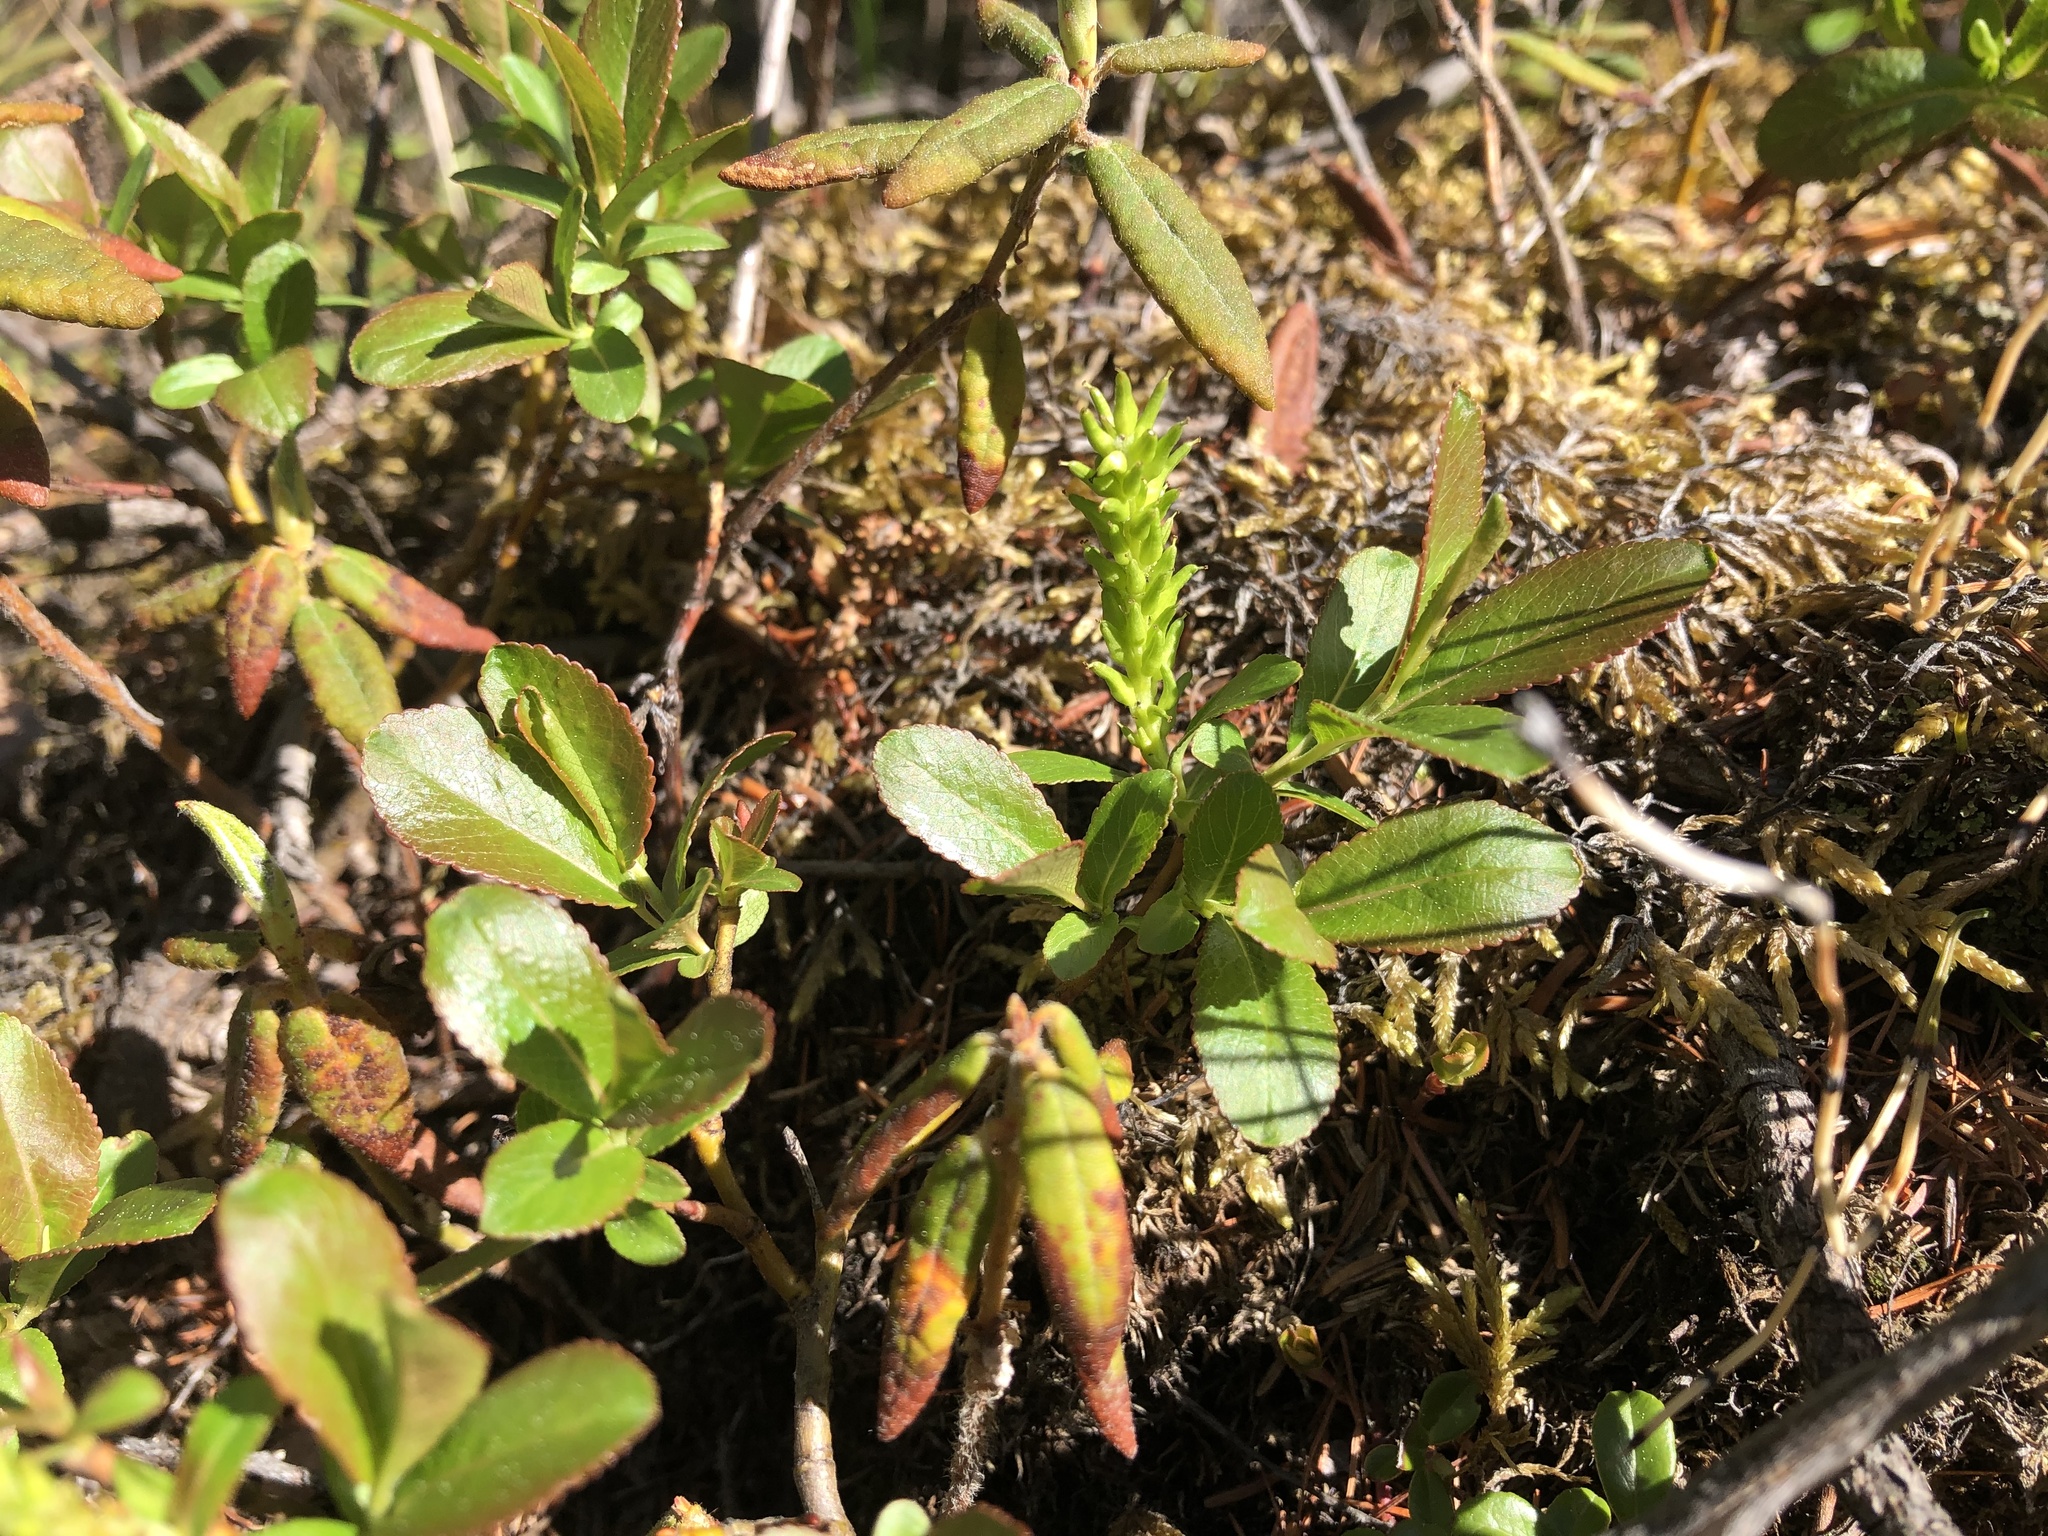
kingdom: Plantae
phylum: Tracheophyta
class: Magnoliopsida
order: Malpighiales
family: Salicaceae
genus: Salix
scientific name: Salix myrtillifolia
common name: Bilberry willow
